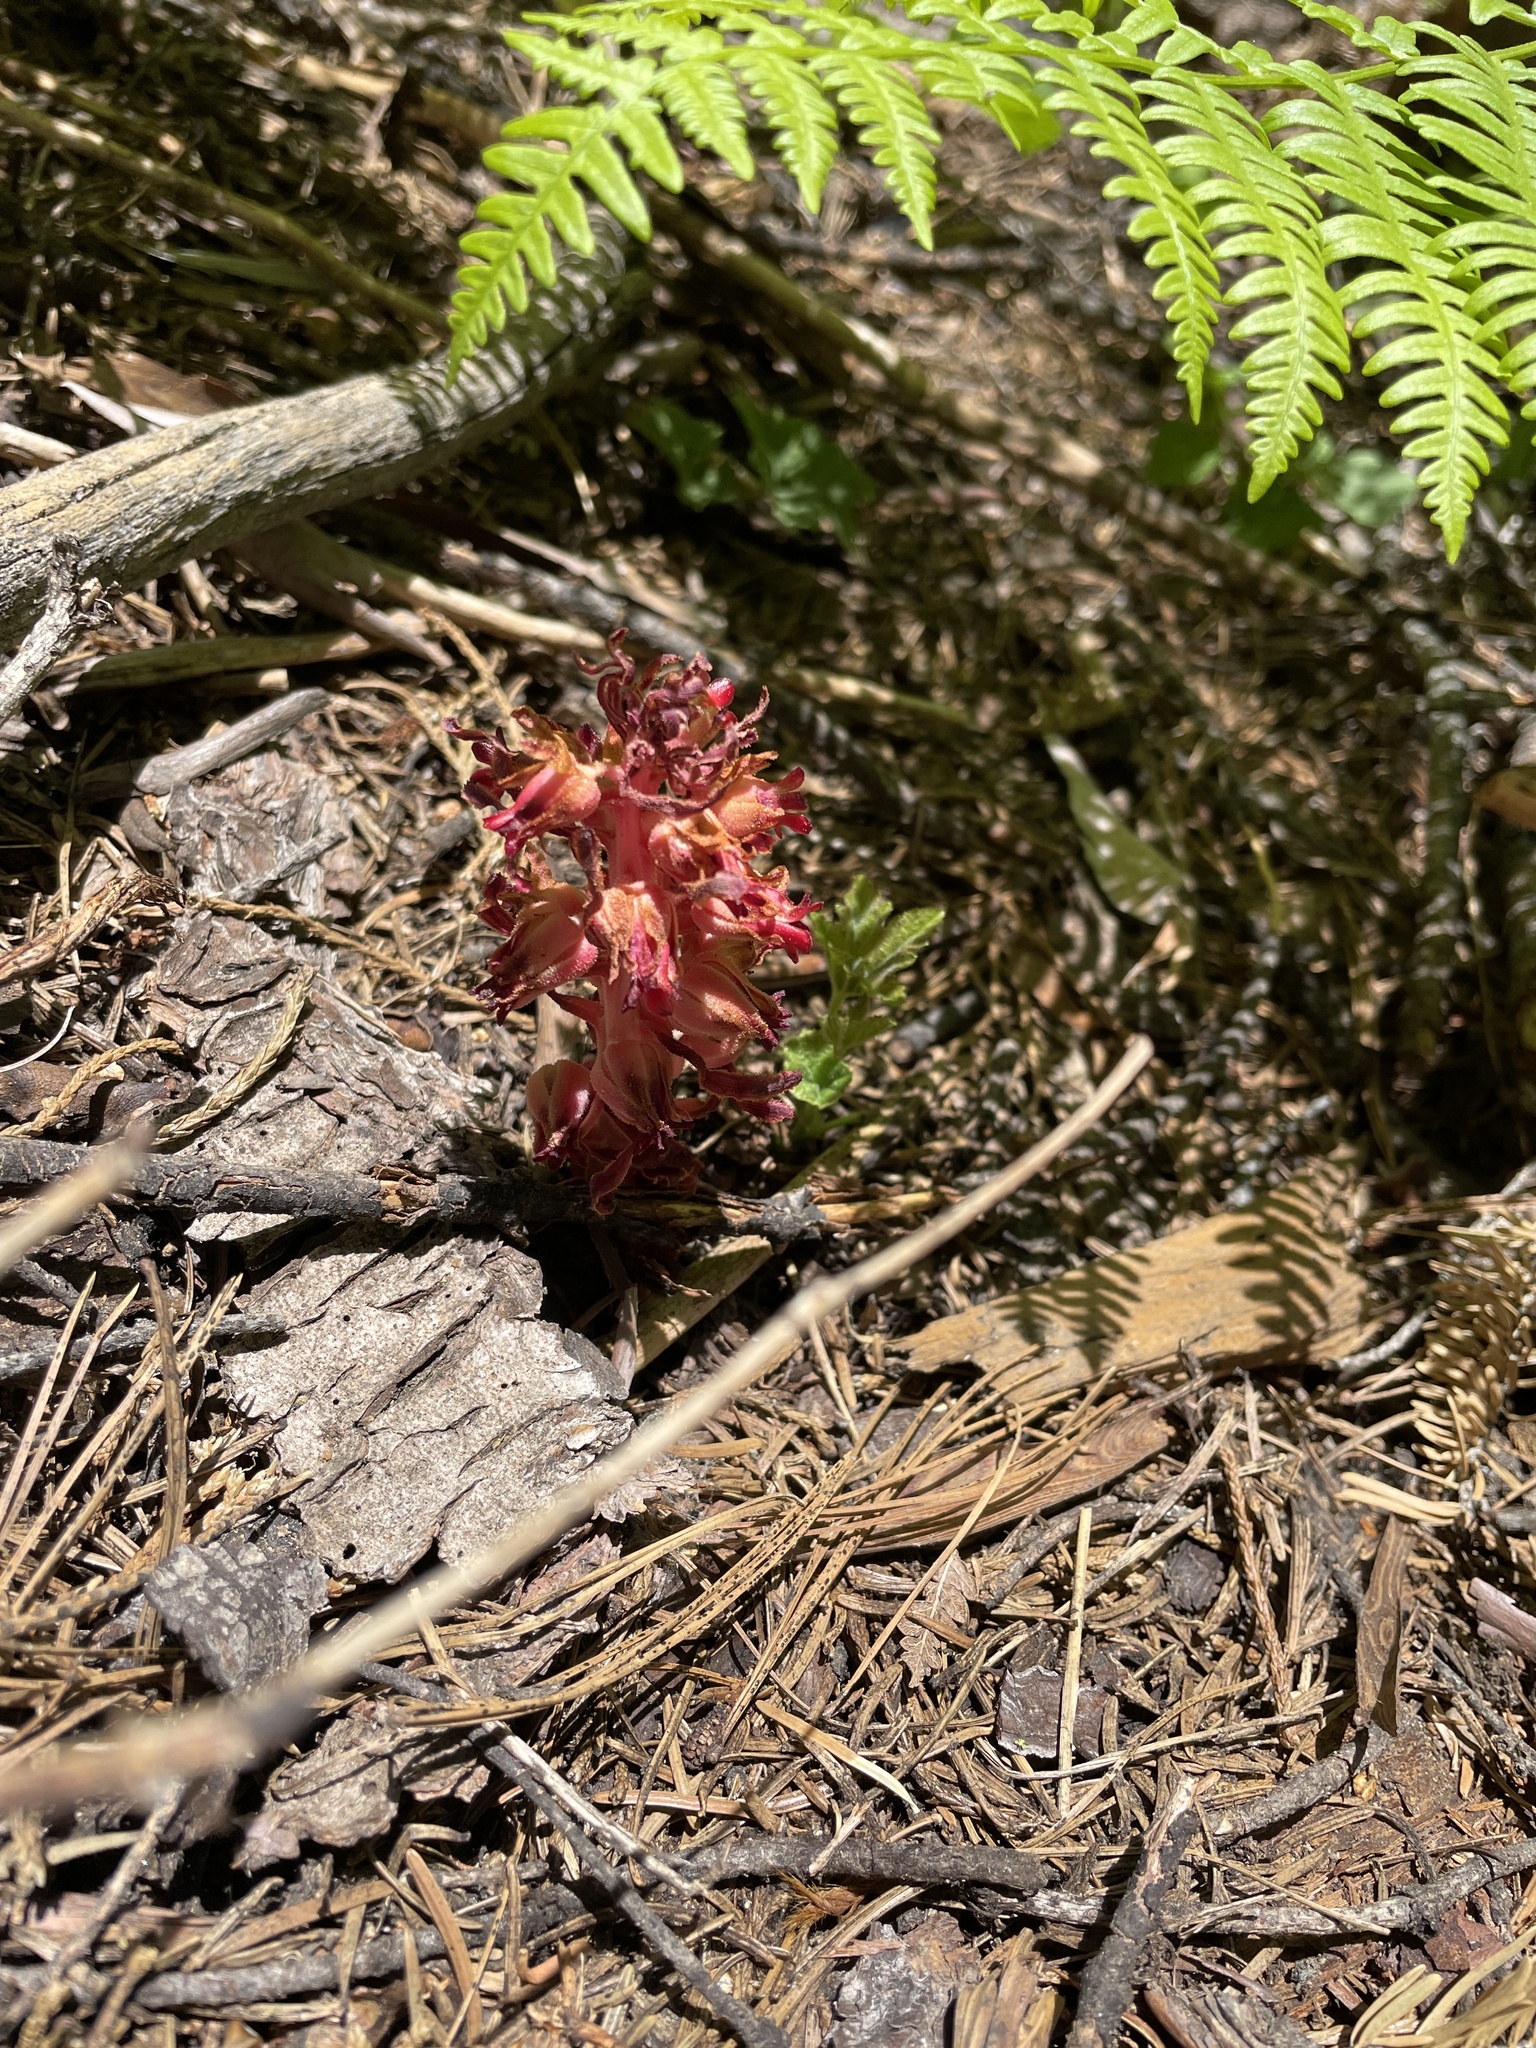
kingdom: Plantae
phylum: Tracheophyta
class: Magnoliopsida
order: Ericales
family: Ericaceae
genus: Sarcodes
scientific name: Sarcodes sanguinea
